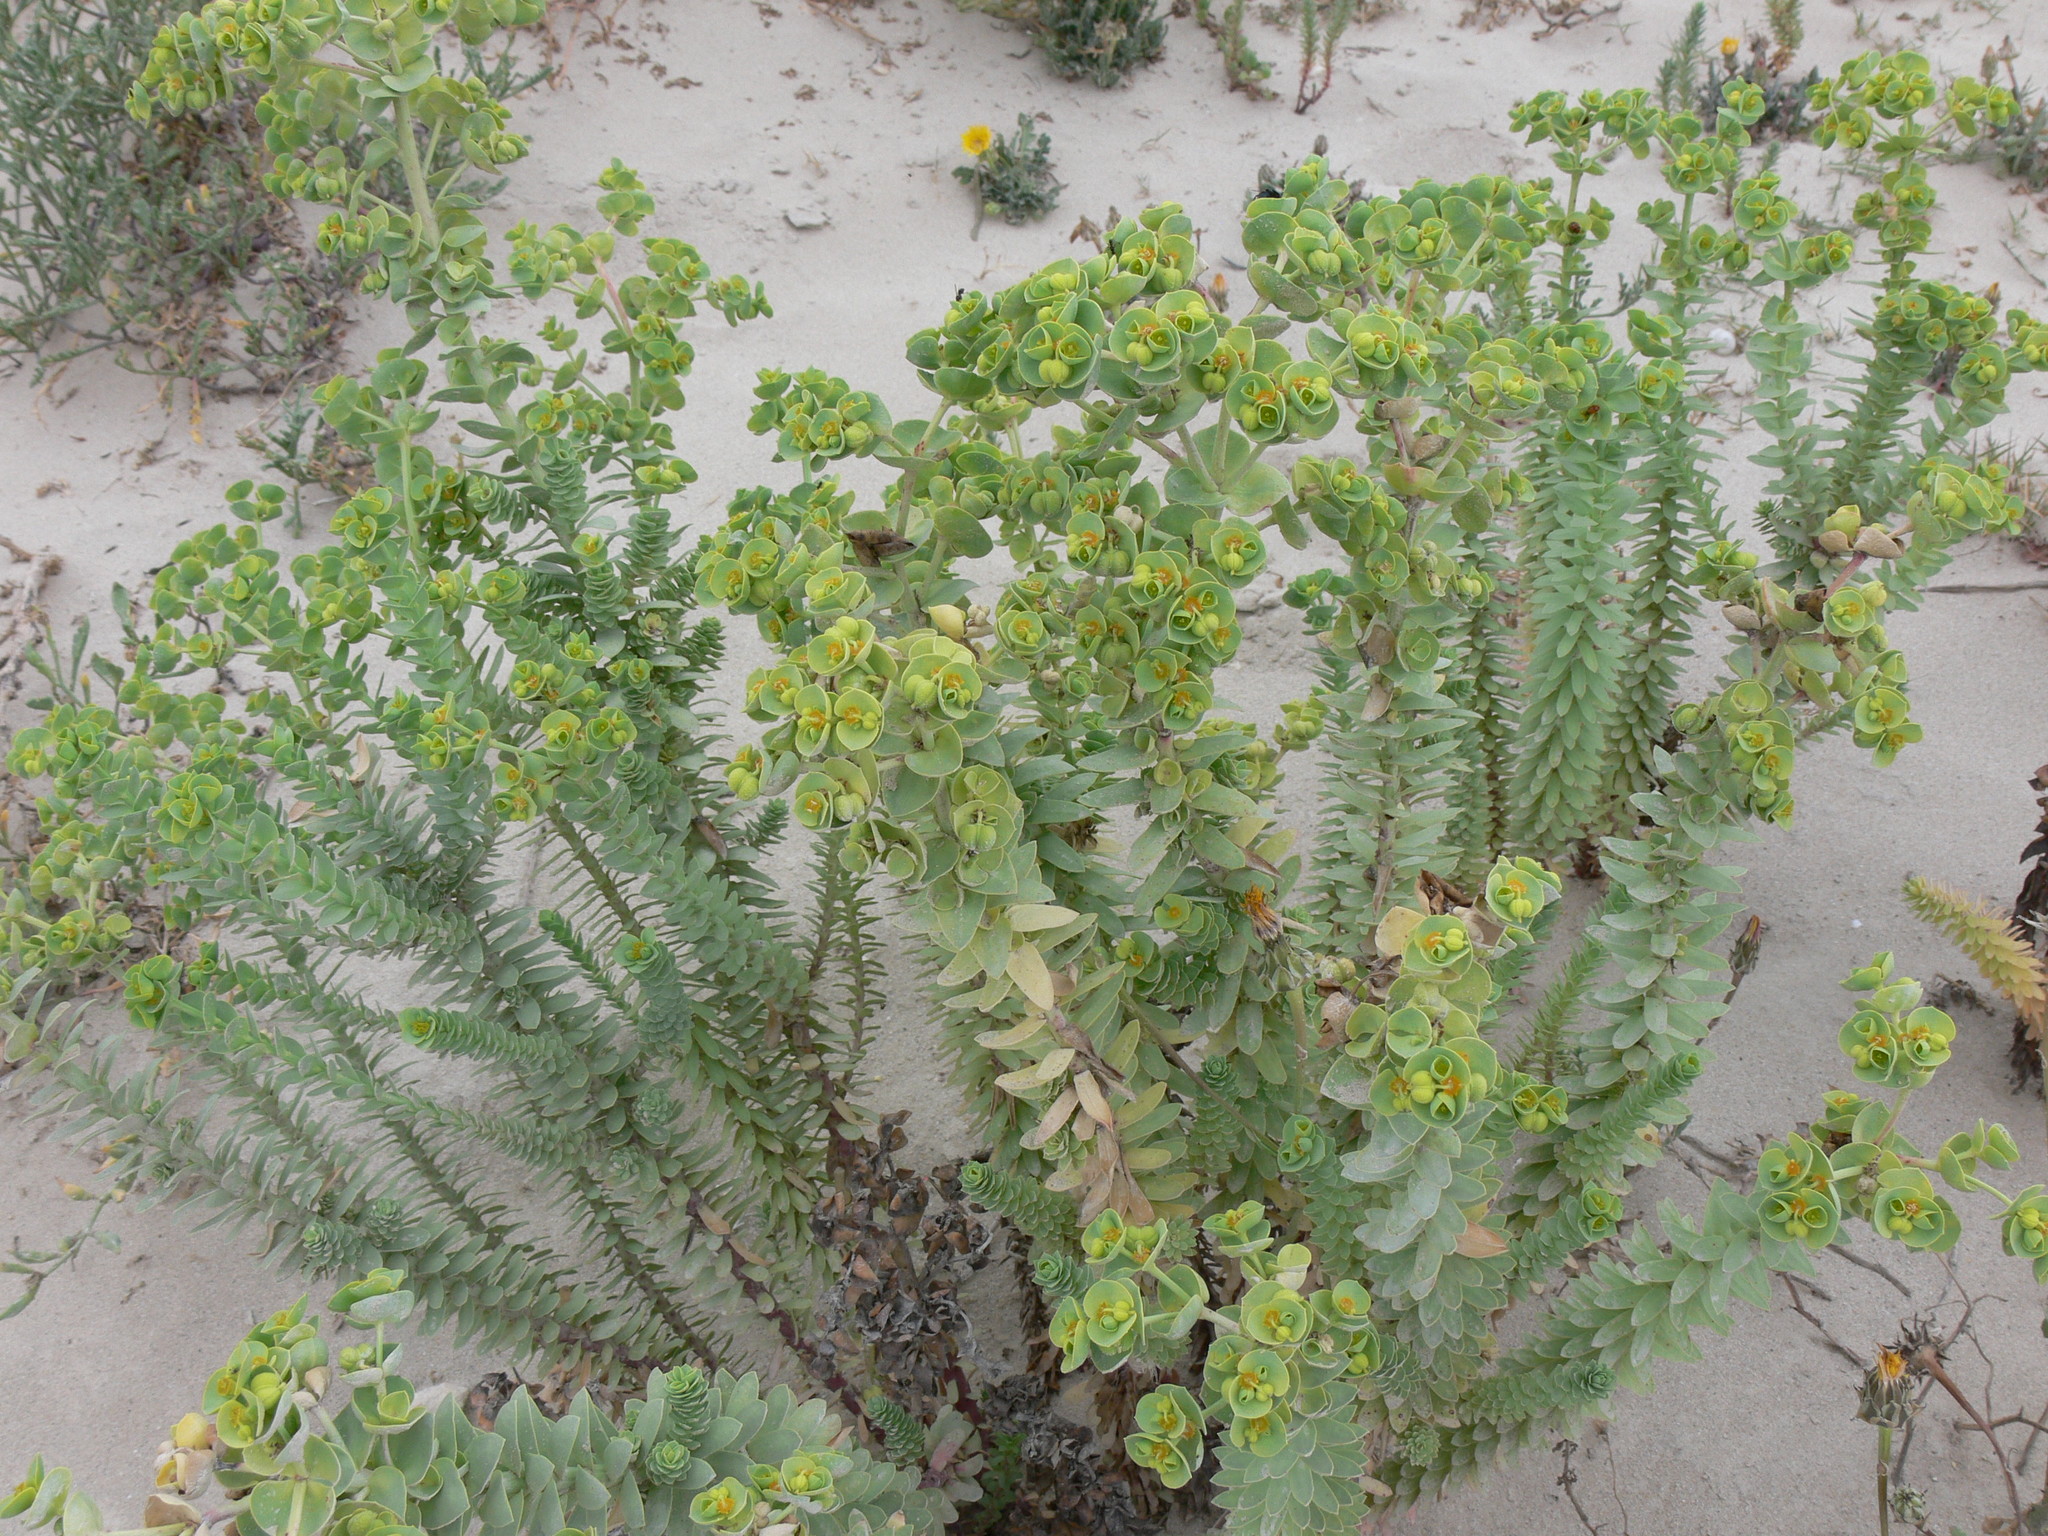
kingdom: Plantae
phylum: Tracheophyta
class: Magnoliopsida
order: Malpighiales
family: Euphorbiaceae
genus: Euphorbia
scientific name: Euphorbia paralias
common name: Sea spurge
